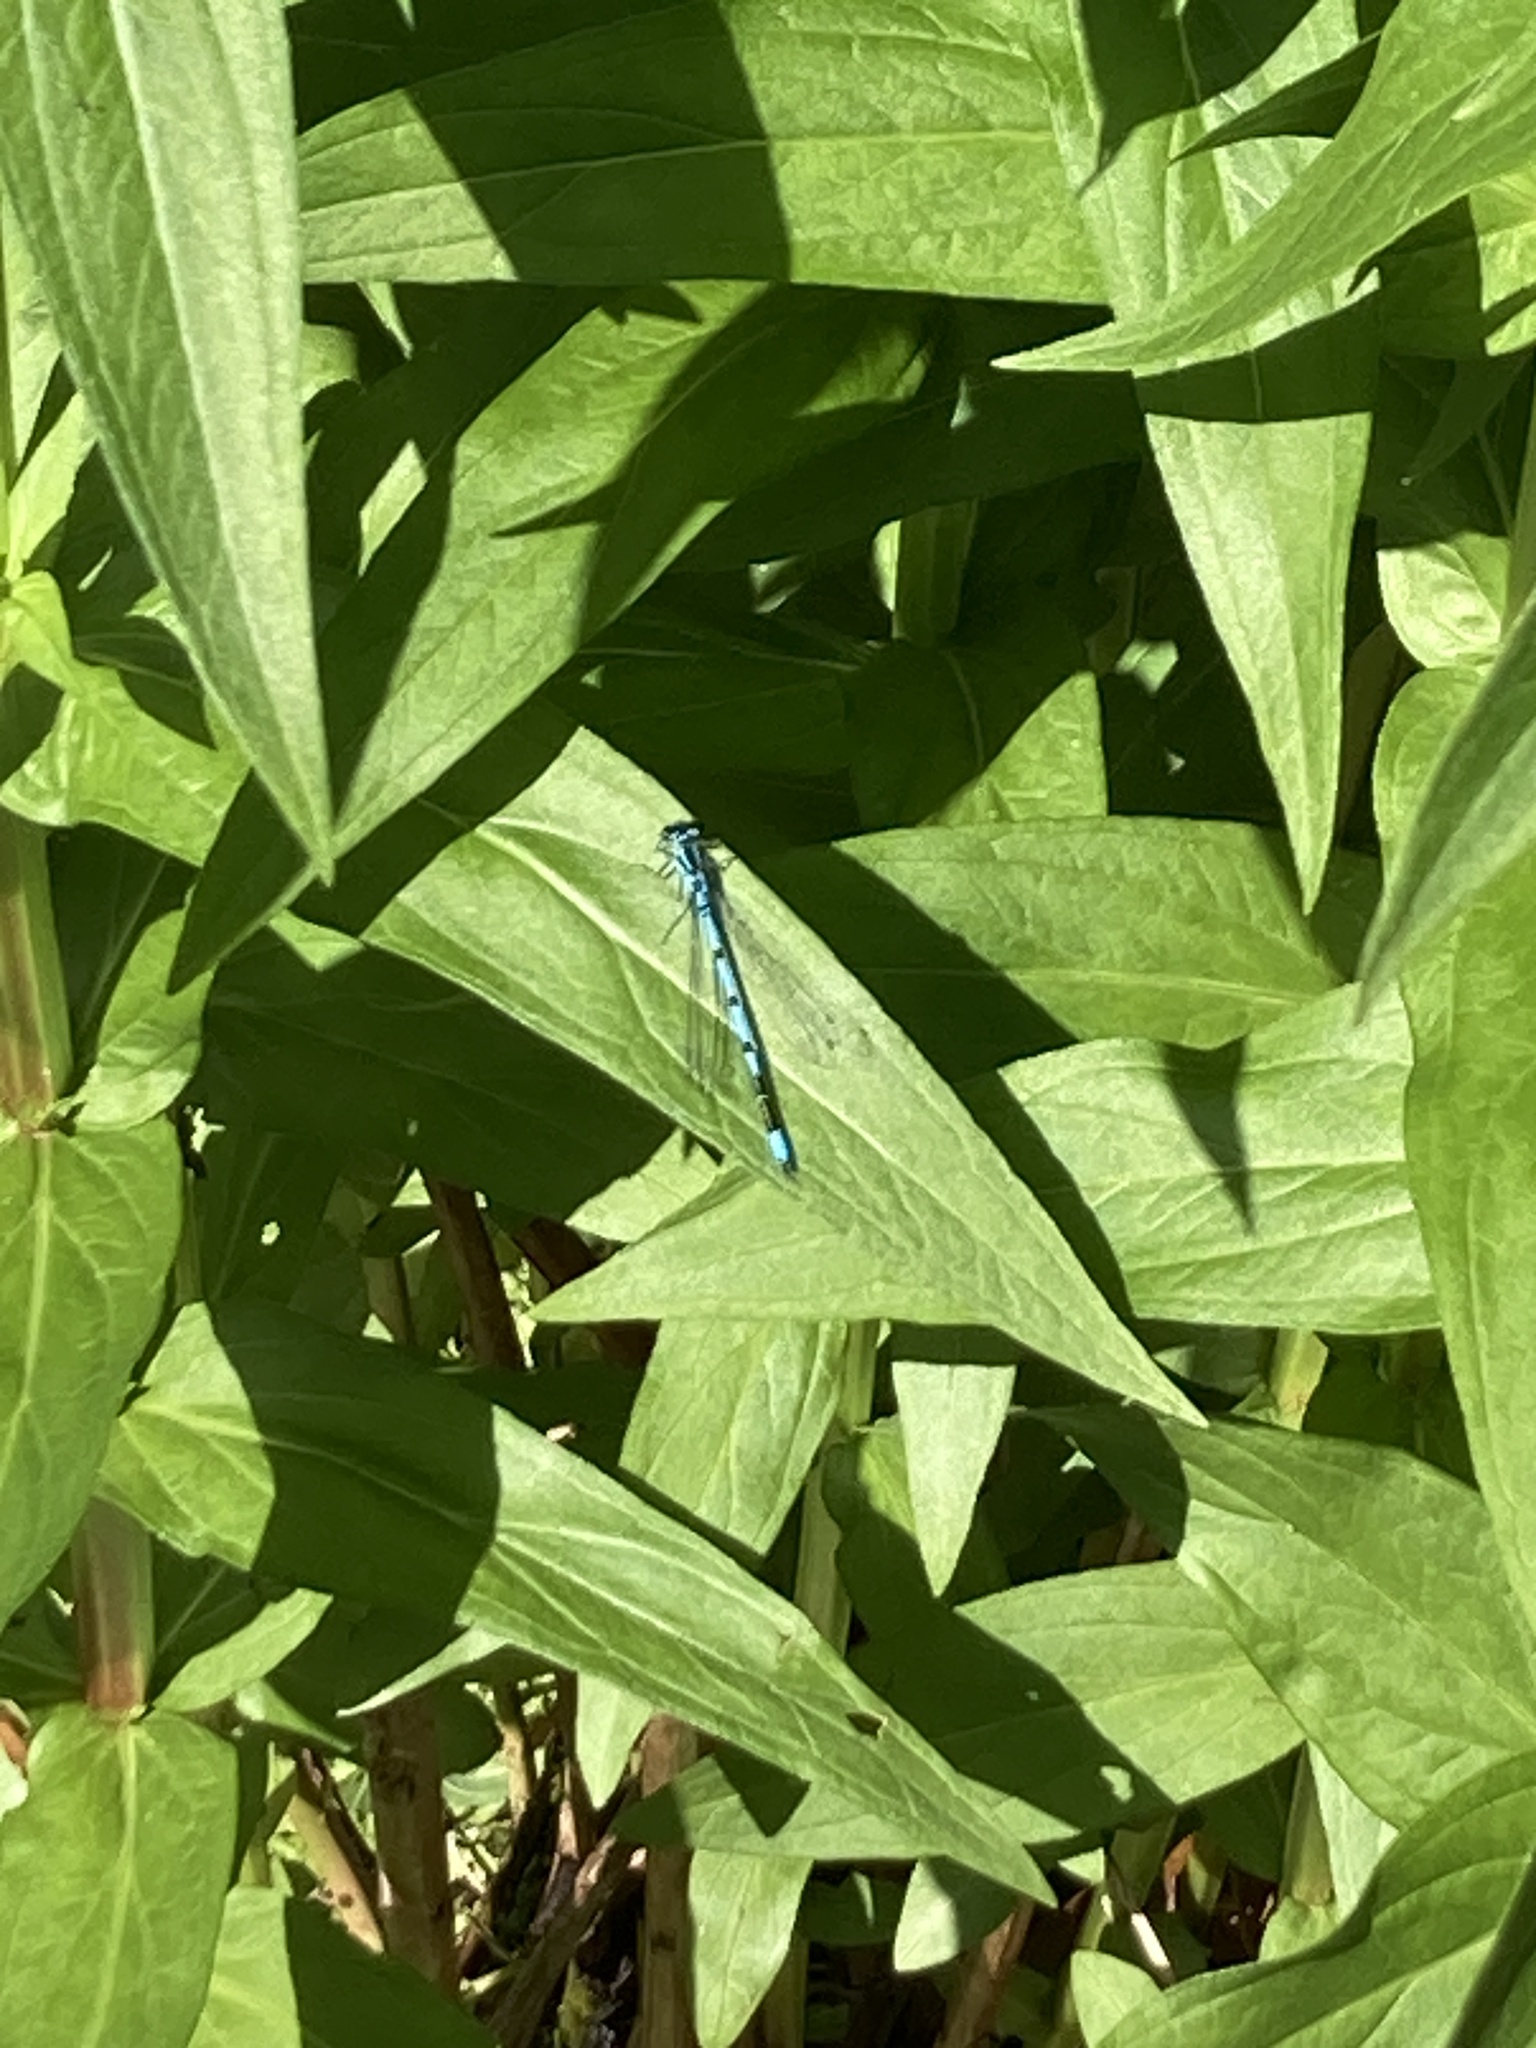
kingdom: Animalia
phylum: Arthropoda
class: Insecta
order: Odonata
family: Coenagrionidae
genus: Coenagrion
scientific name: Coenagrion puella
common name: Azure damselfly
